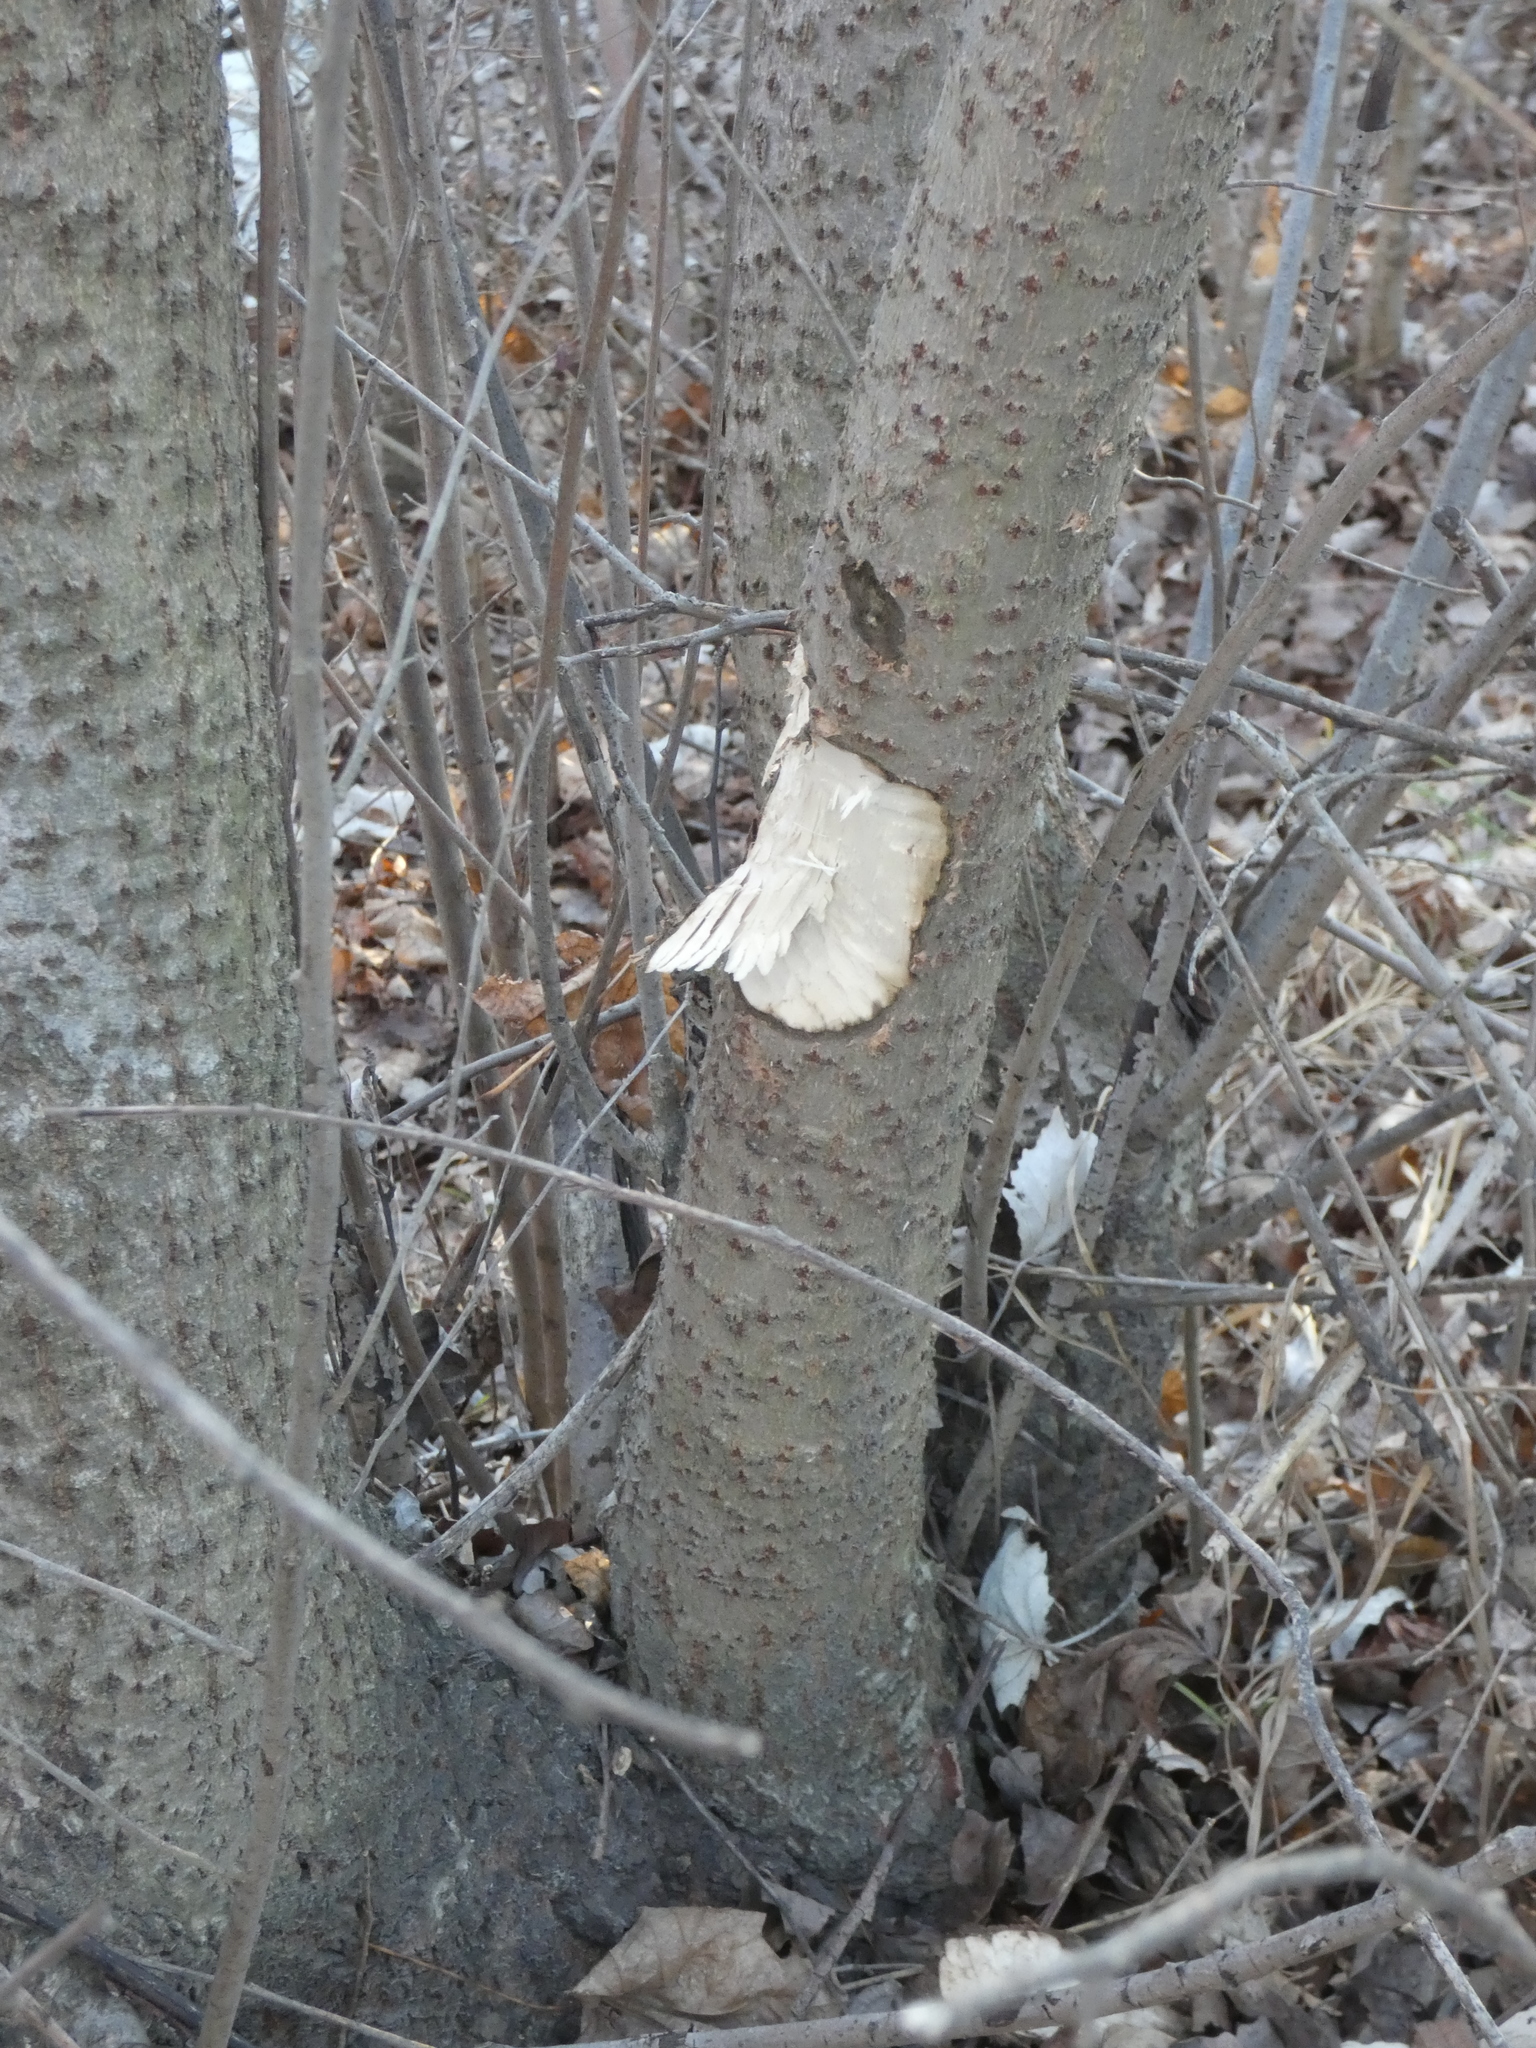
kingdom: Animalia
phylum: Chordata
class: Mammalia
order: Rodentia
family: Castoridae
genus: Castor
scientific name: Castor fiber
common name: Eurasian beaver
